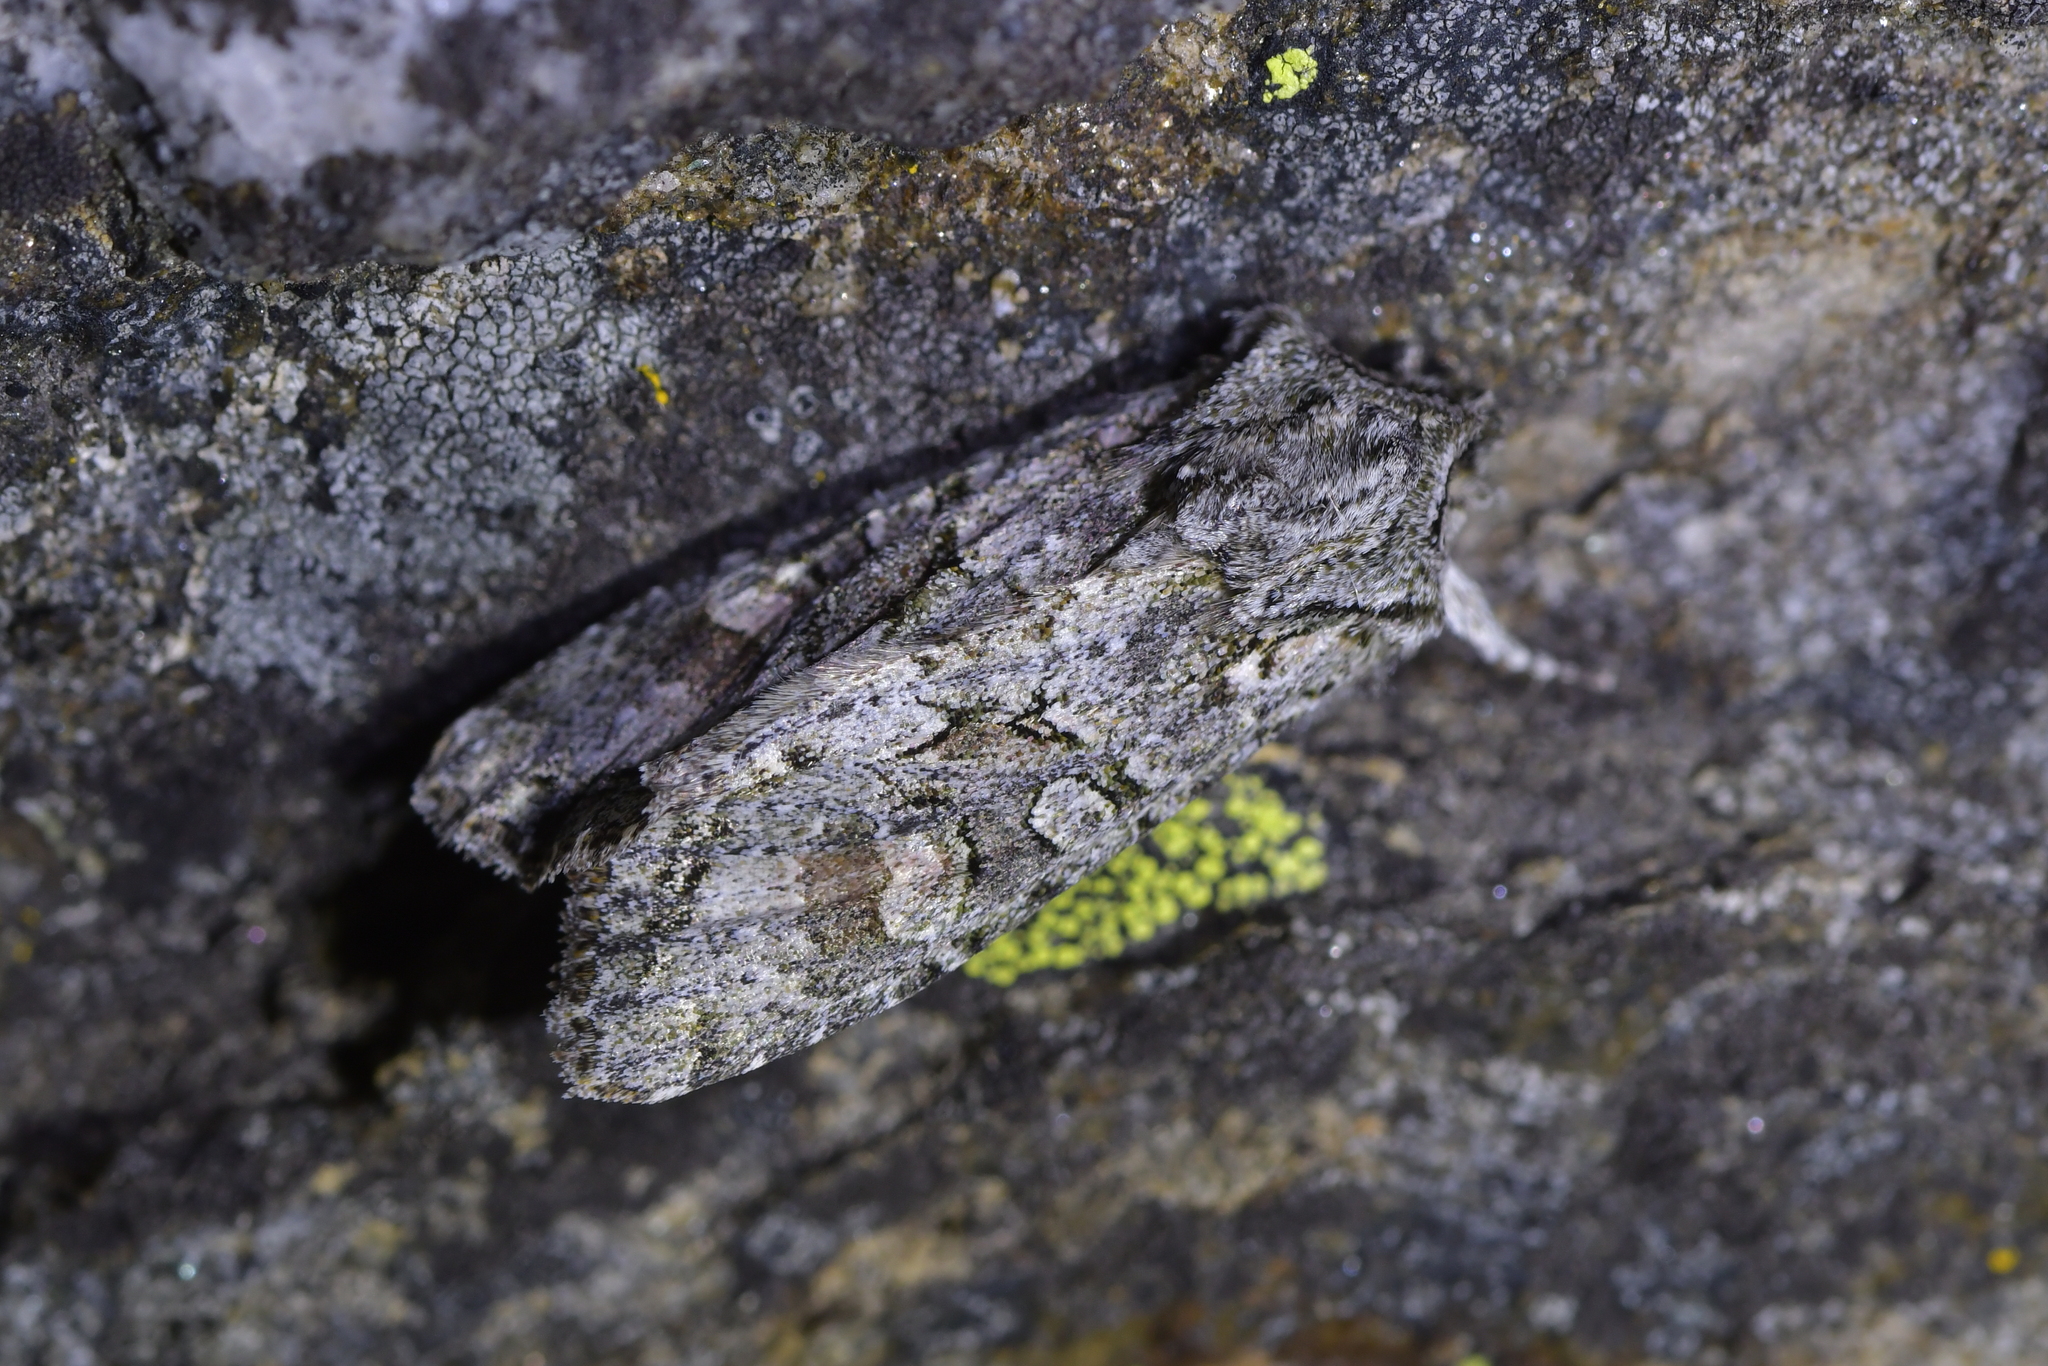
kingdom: Animalia
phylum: Arthropoda
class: Insecta
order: Lepidoptera
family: Noctuidae
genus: Ichneutica
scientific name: Ichneutica mutans
